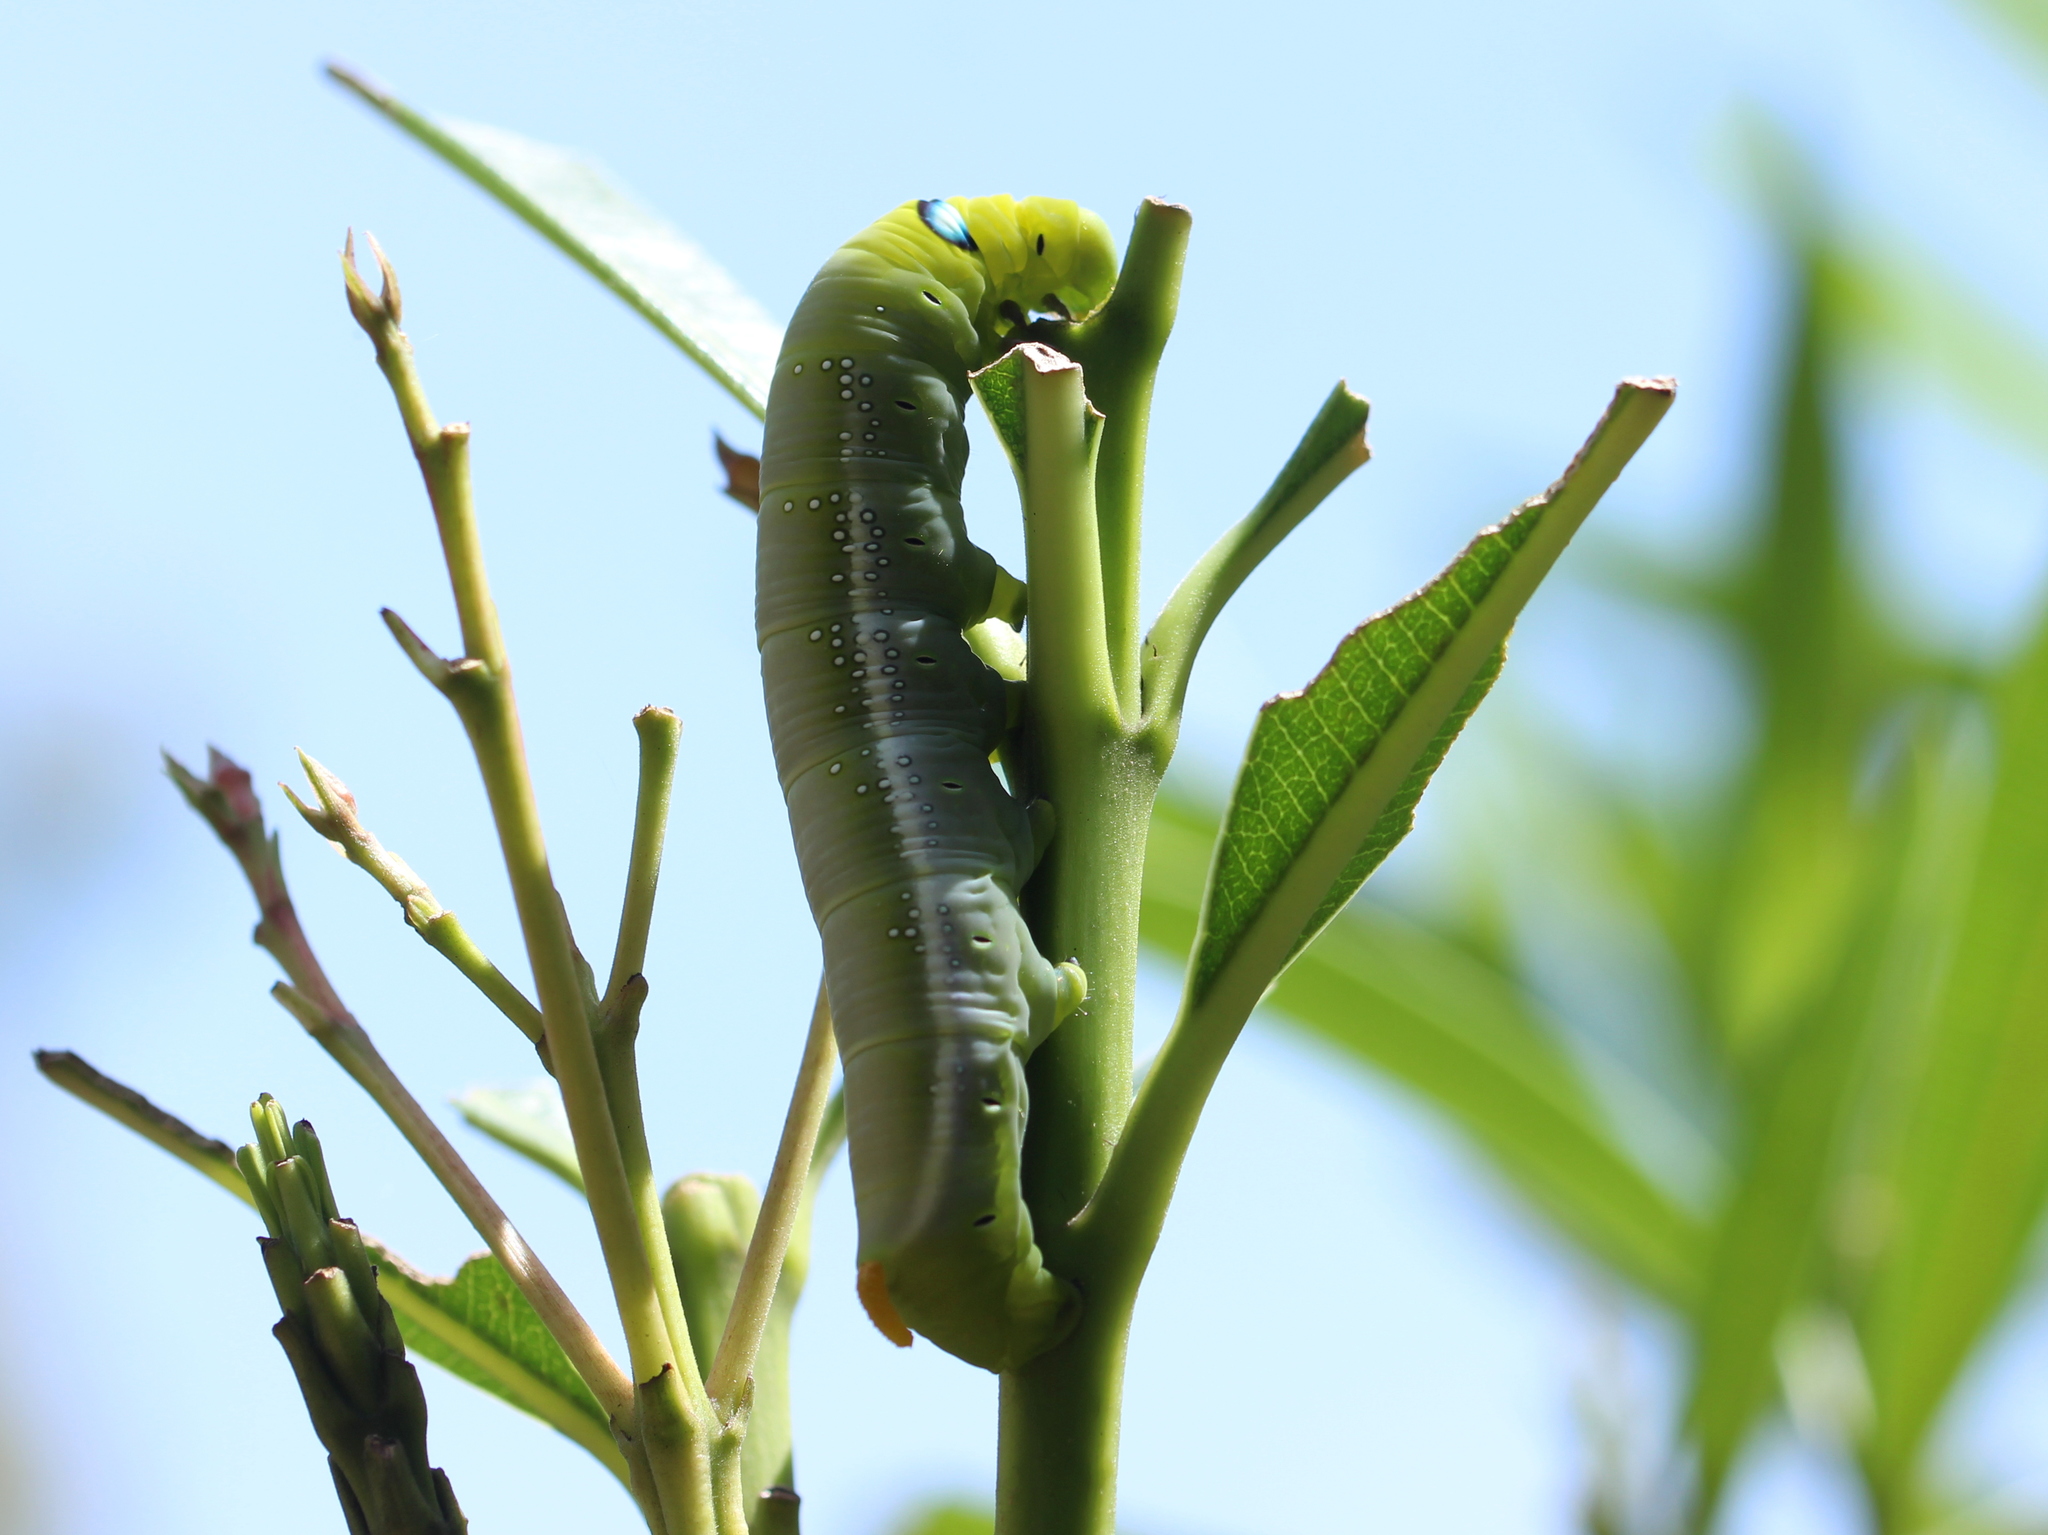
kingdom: Animalia
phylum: Arthropoda
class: Insecta
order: Lepidoptera
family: Sphingidae
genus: Daphnis
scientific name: Daphnis nerii
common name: Oleander hawk-moth
